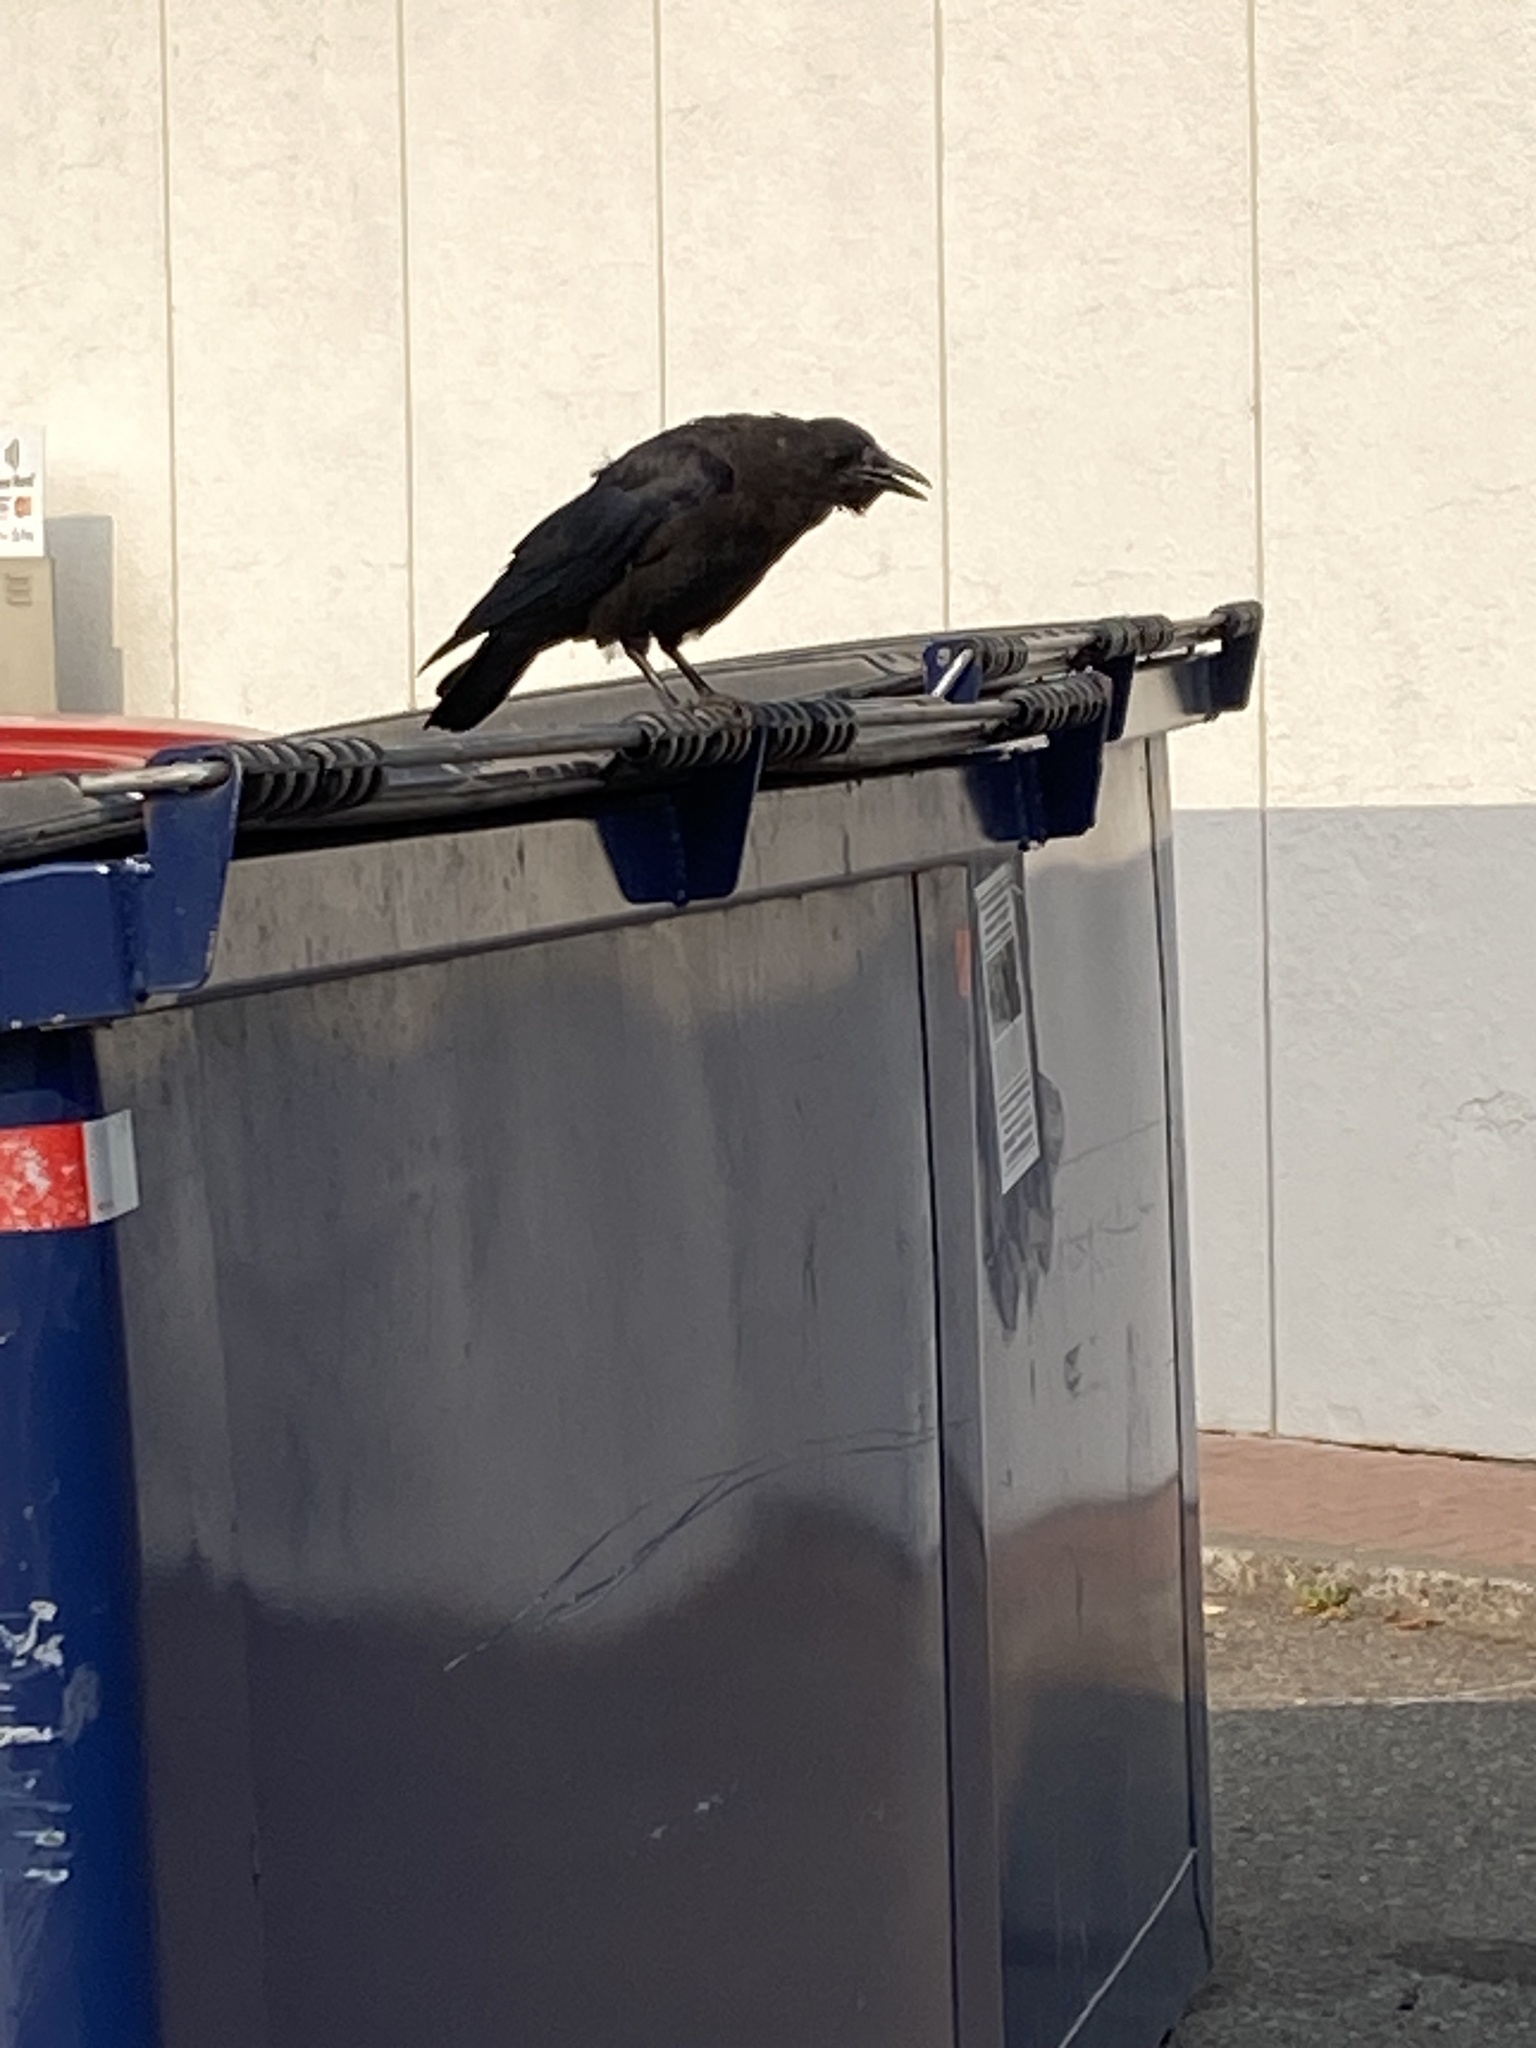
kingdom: Animalia
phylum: Chordata
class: Aves
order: Passeriformes
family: Corvidae
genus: Corvus
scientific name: Corvus brachyrhynchos
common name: American crow
